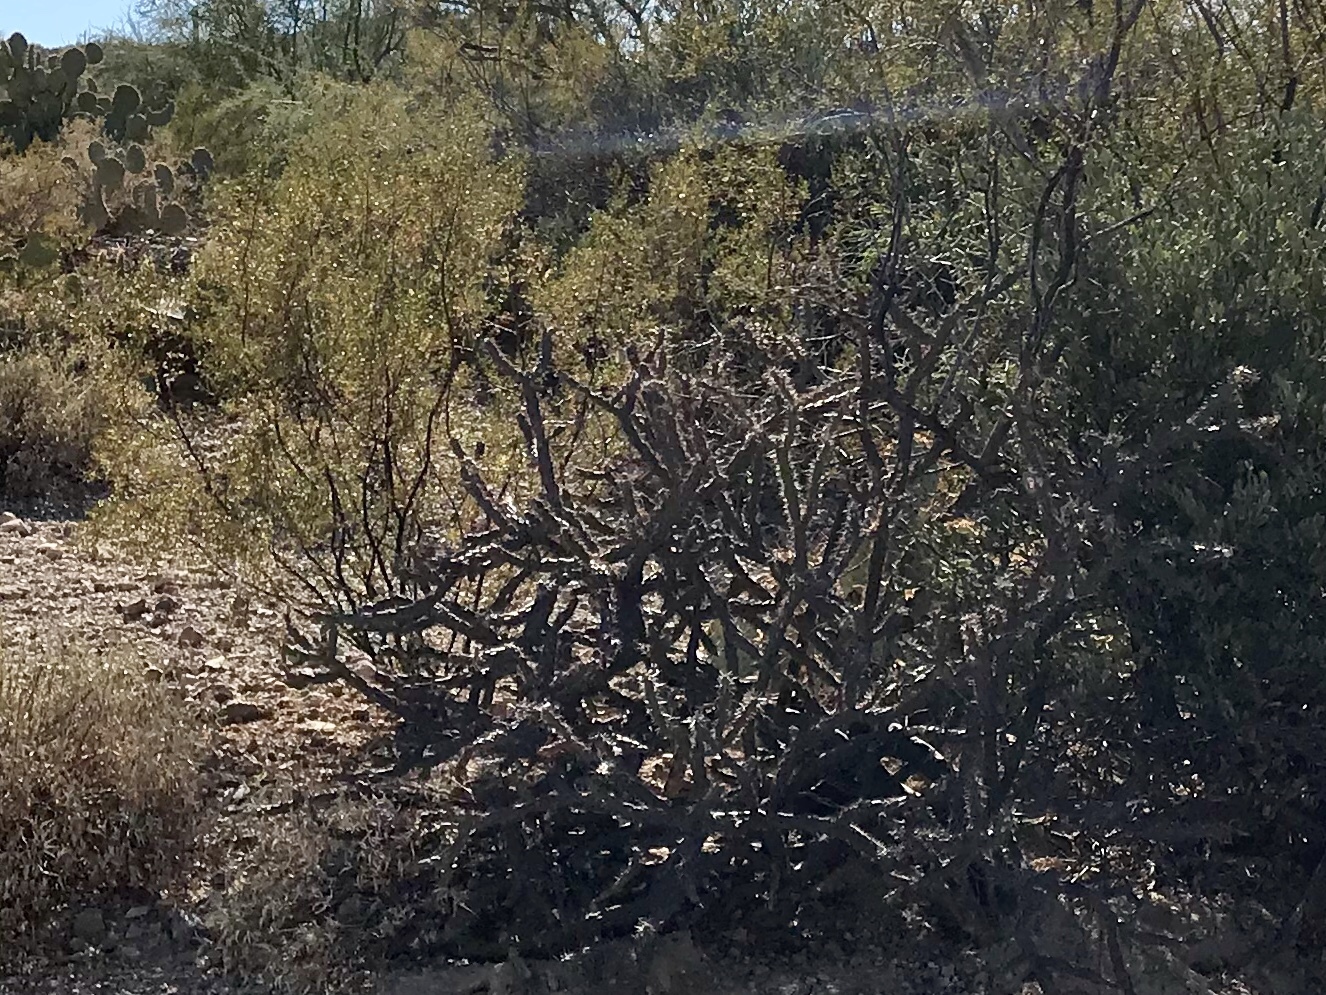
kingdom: Plantae
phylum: Tracheophyta
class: Magnoliopsida
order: Caryophyllales
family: Cactaceae
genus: Cylindropuntia
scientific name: Cylindropuntia thurberi
